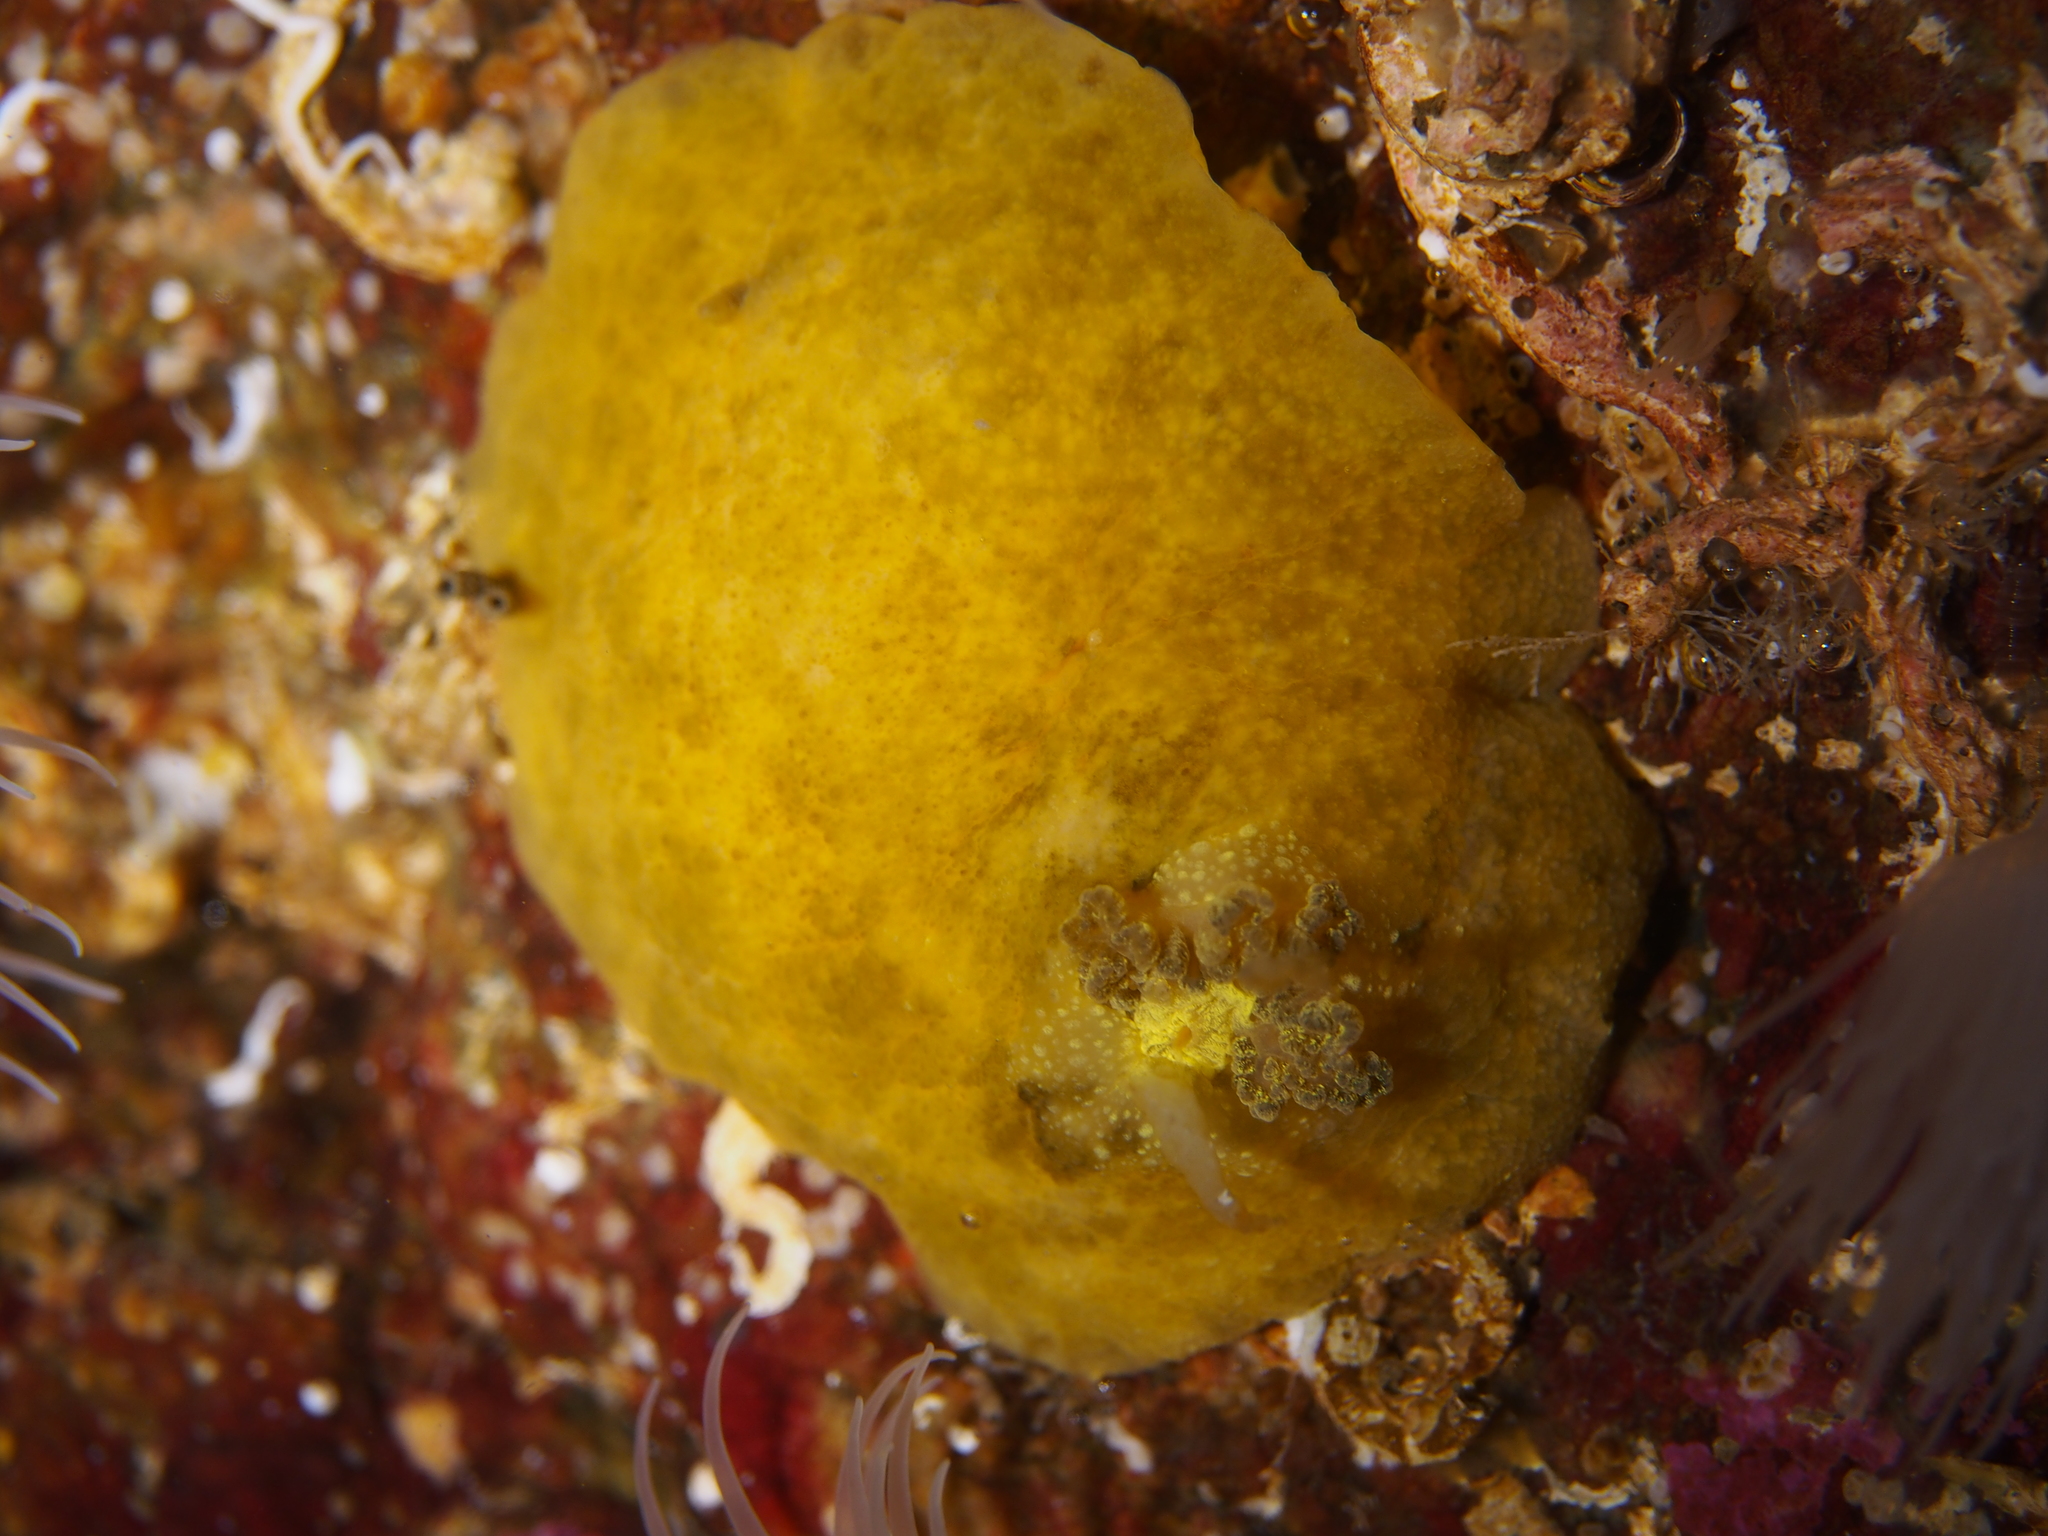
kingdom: Animalia
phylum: Mollusca
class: Gastropoda
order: Nudibranchia
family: Dorididae
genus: Doris
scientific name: Doris pseudoargus
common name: Sea lemon
